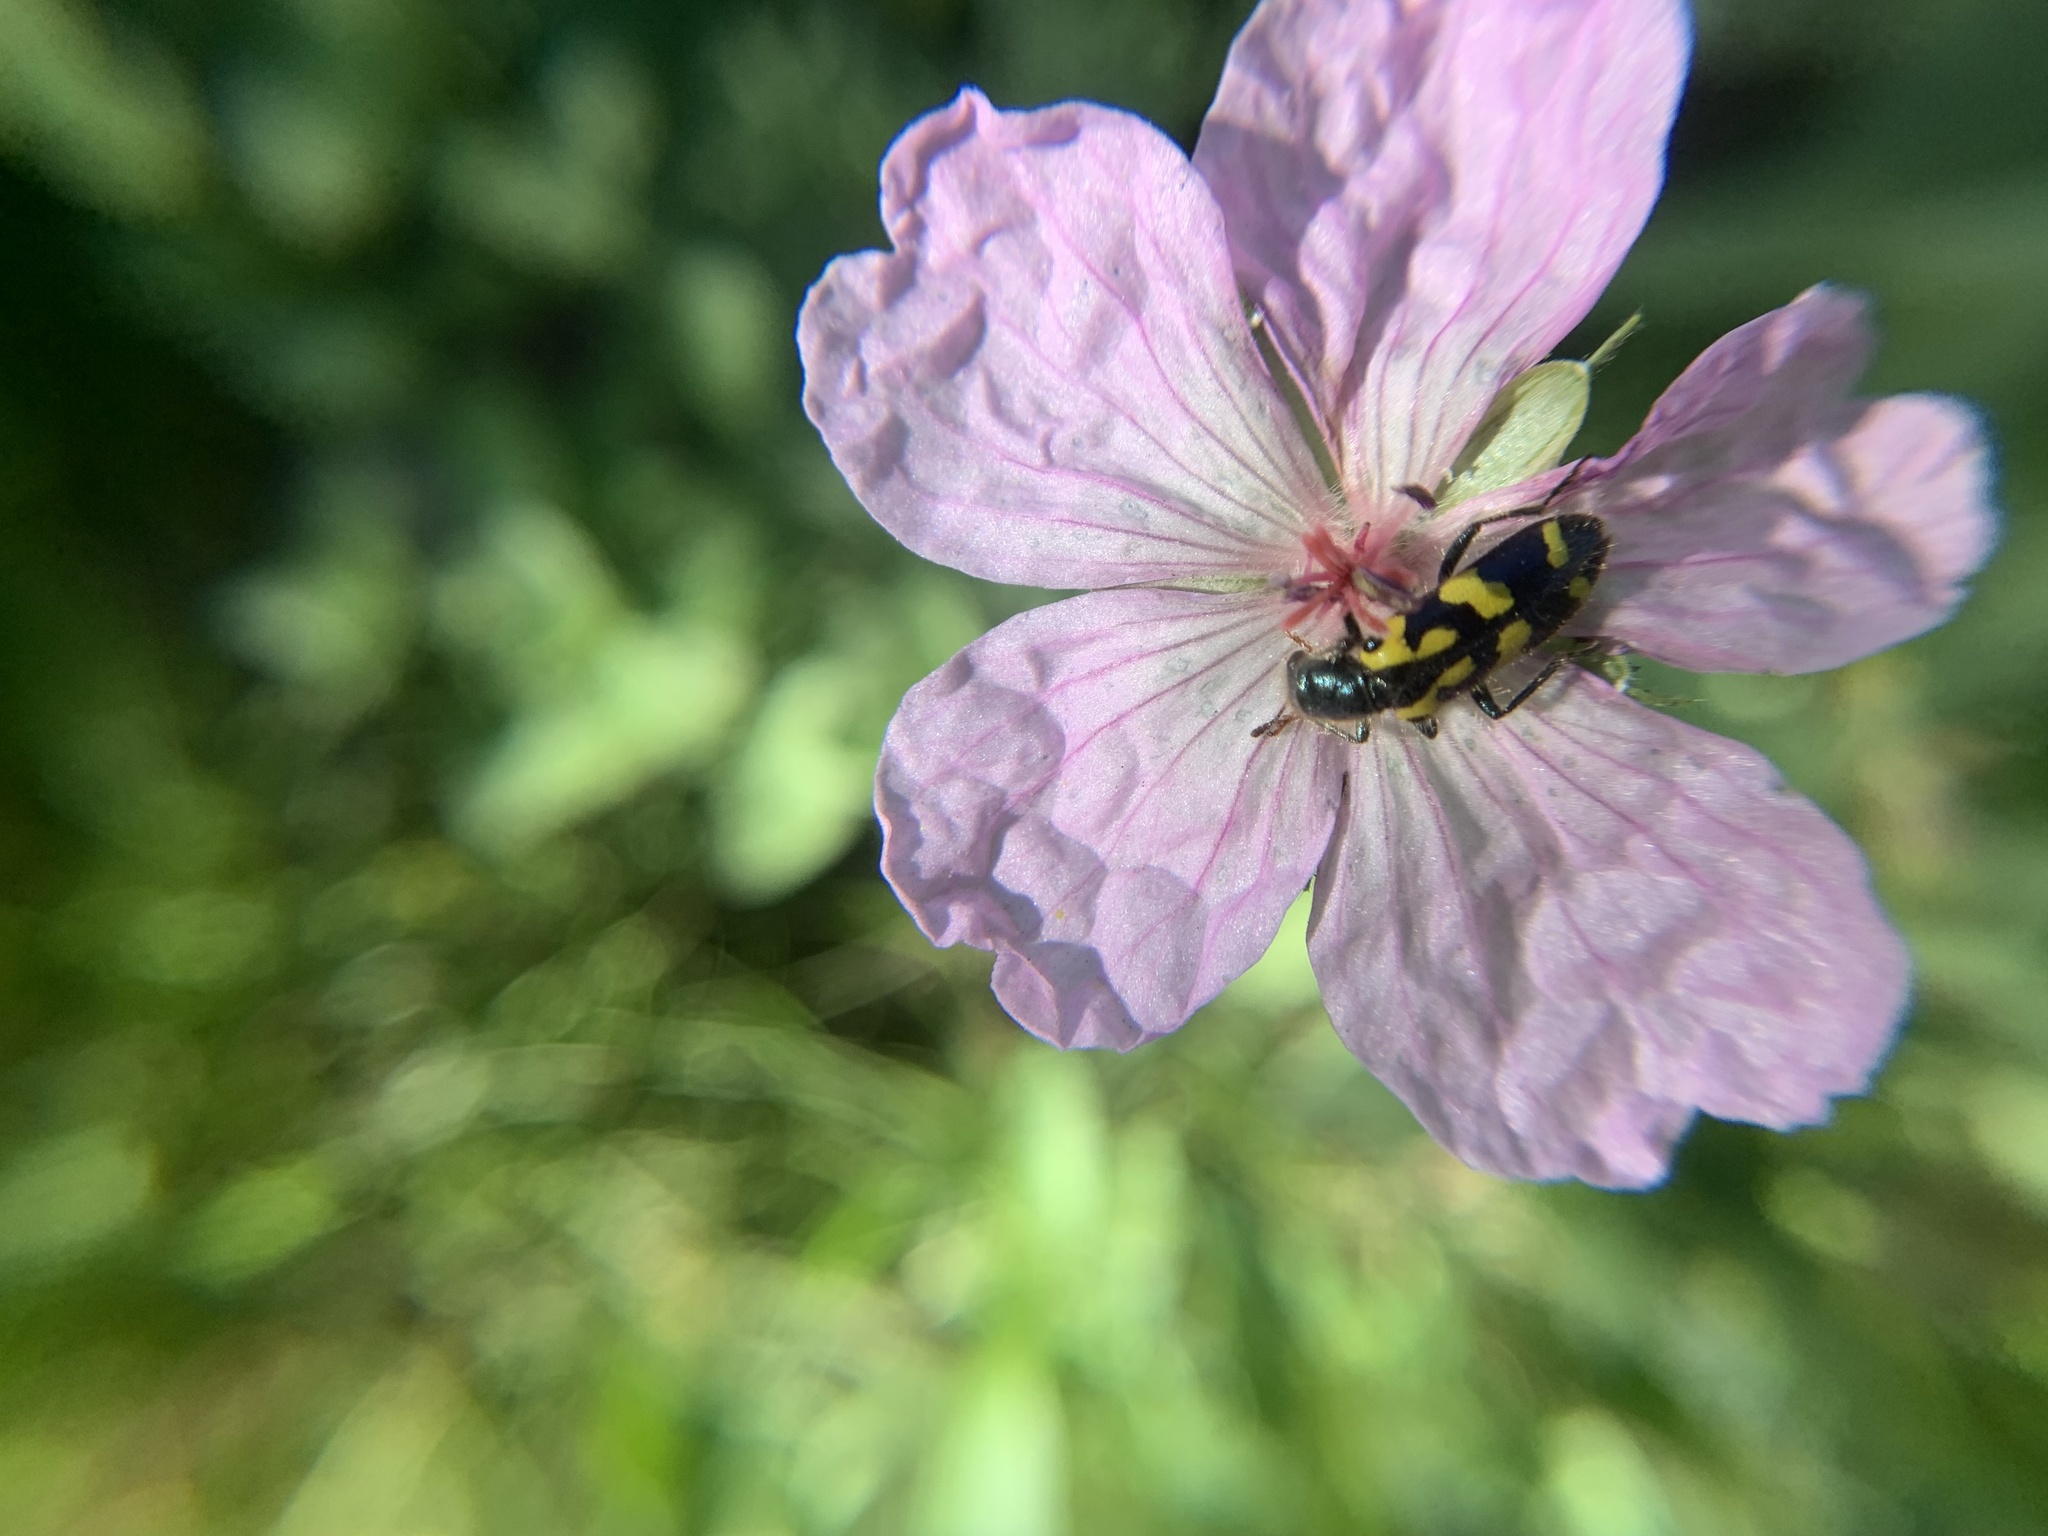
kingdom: Animalia
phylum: Arthropoda
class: Insecta
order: Coleoptera
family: Cleridae
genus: Trichodes
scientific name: Trichodes ornatus
